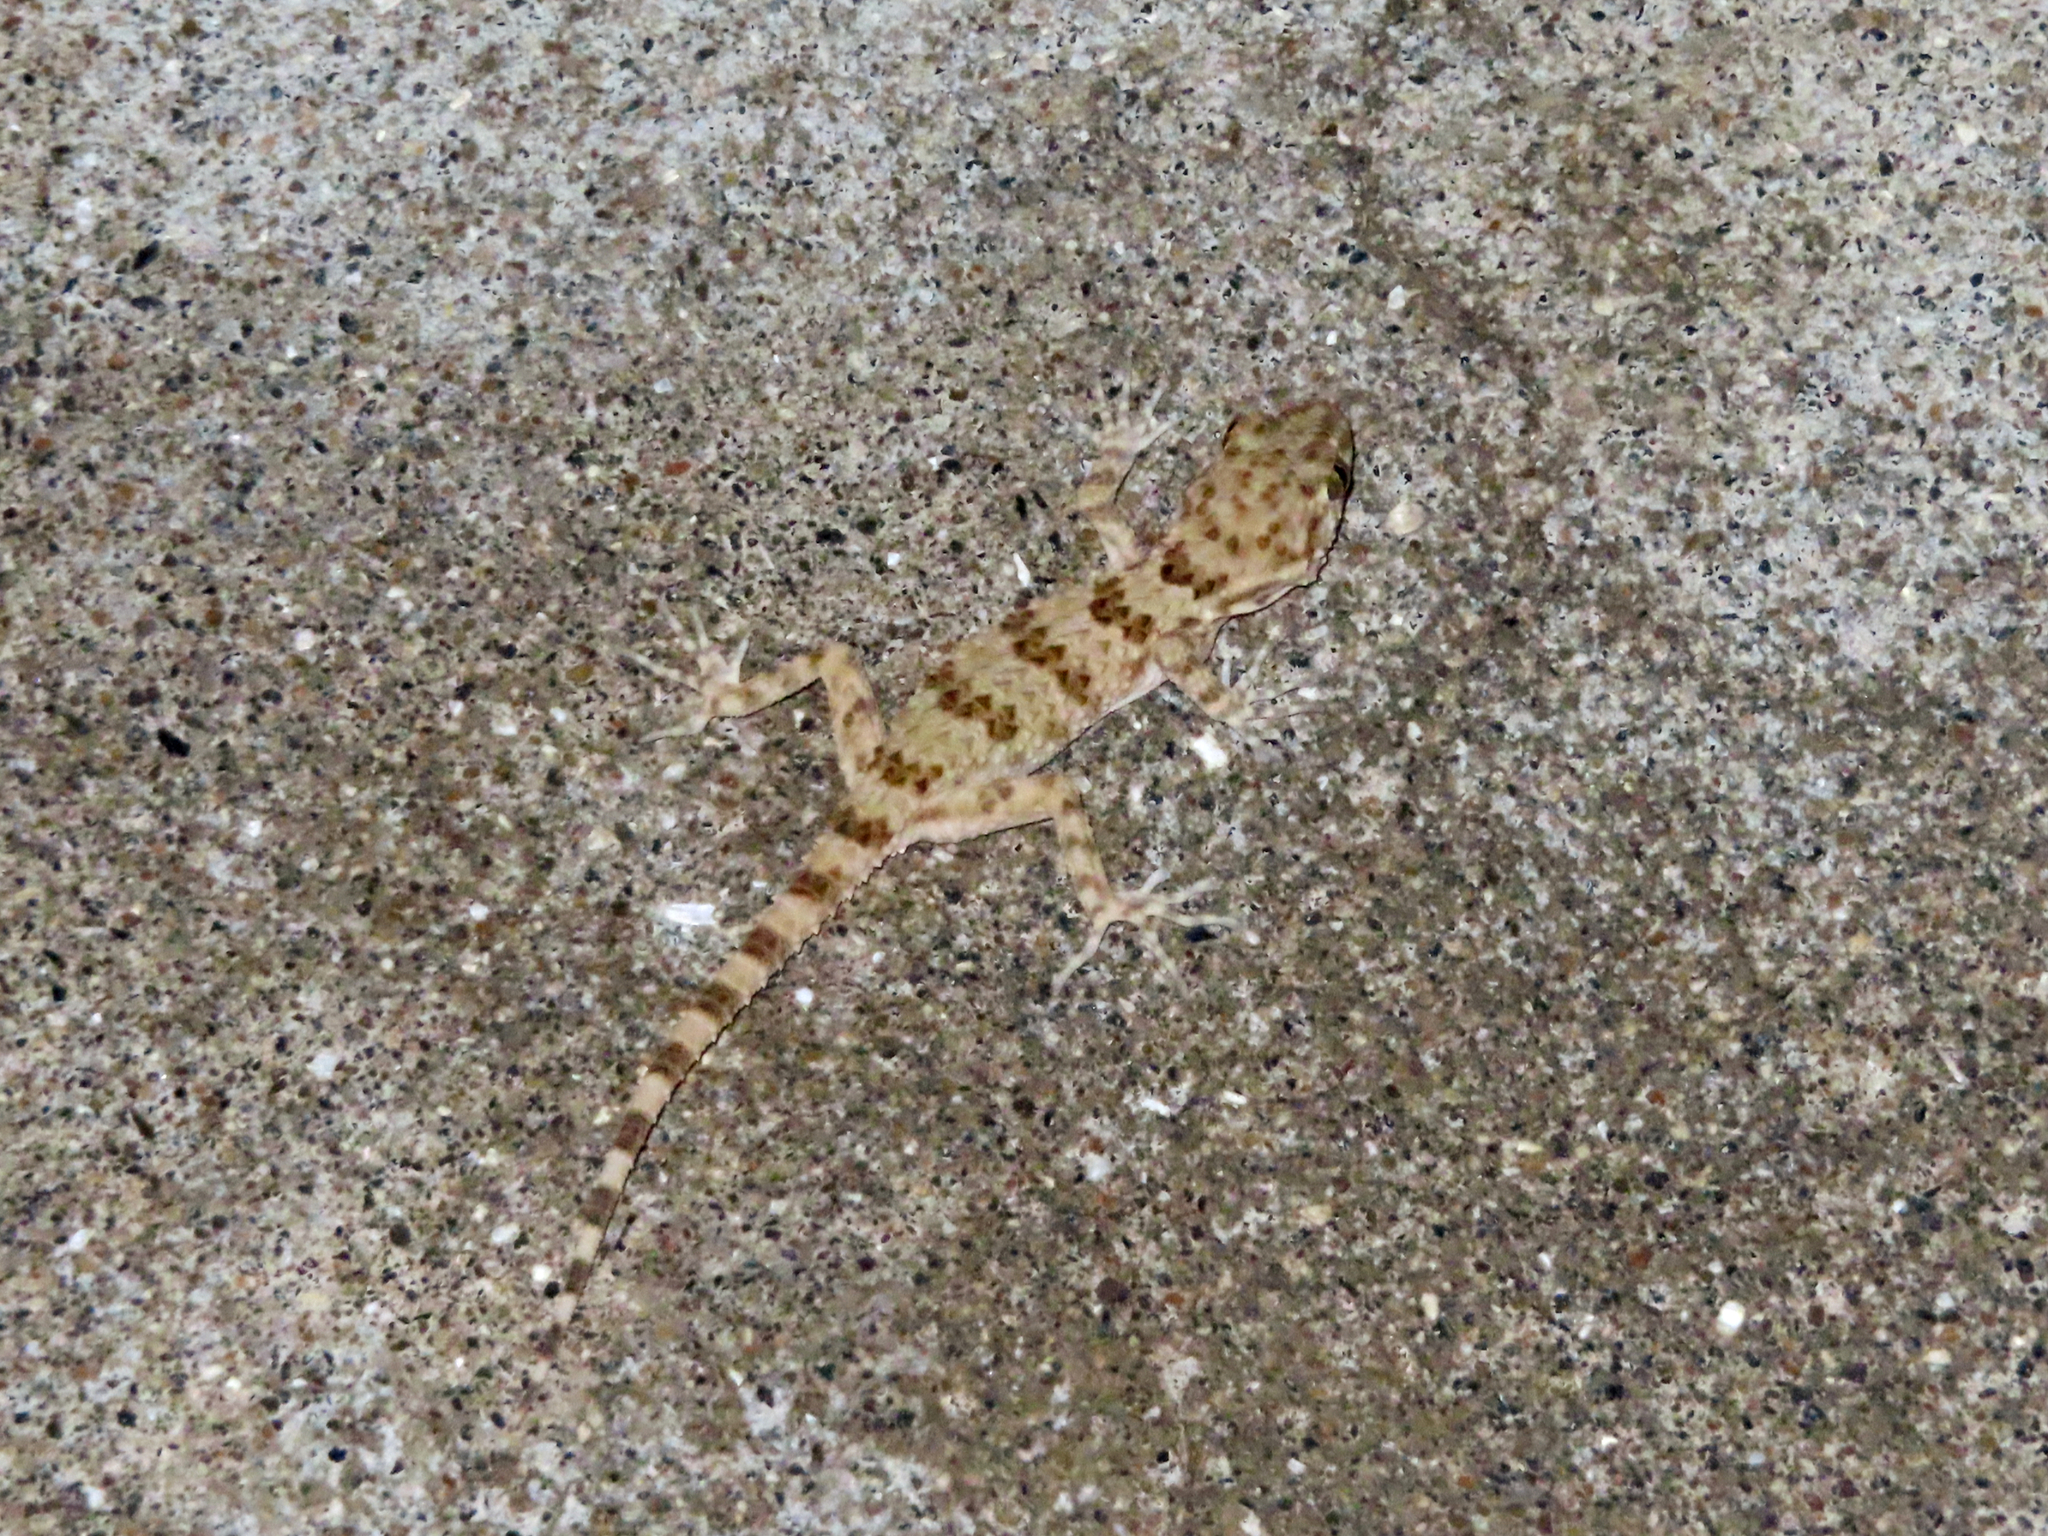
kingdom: Animalia
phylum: Chordata
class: Squamata
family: Gekkonidae
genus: Tenuidactylus
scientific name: Tenuidactylus caspius
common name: Caspian bent-toed gecko
